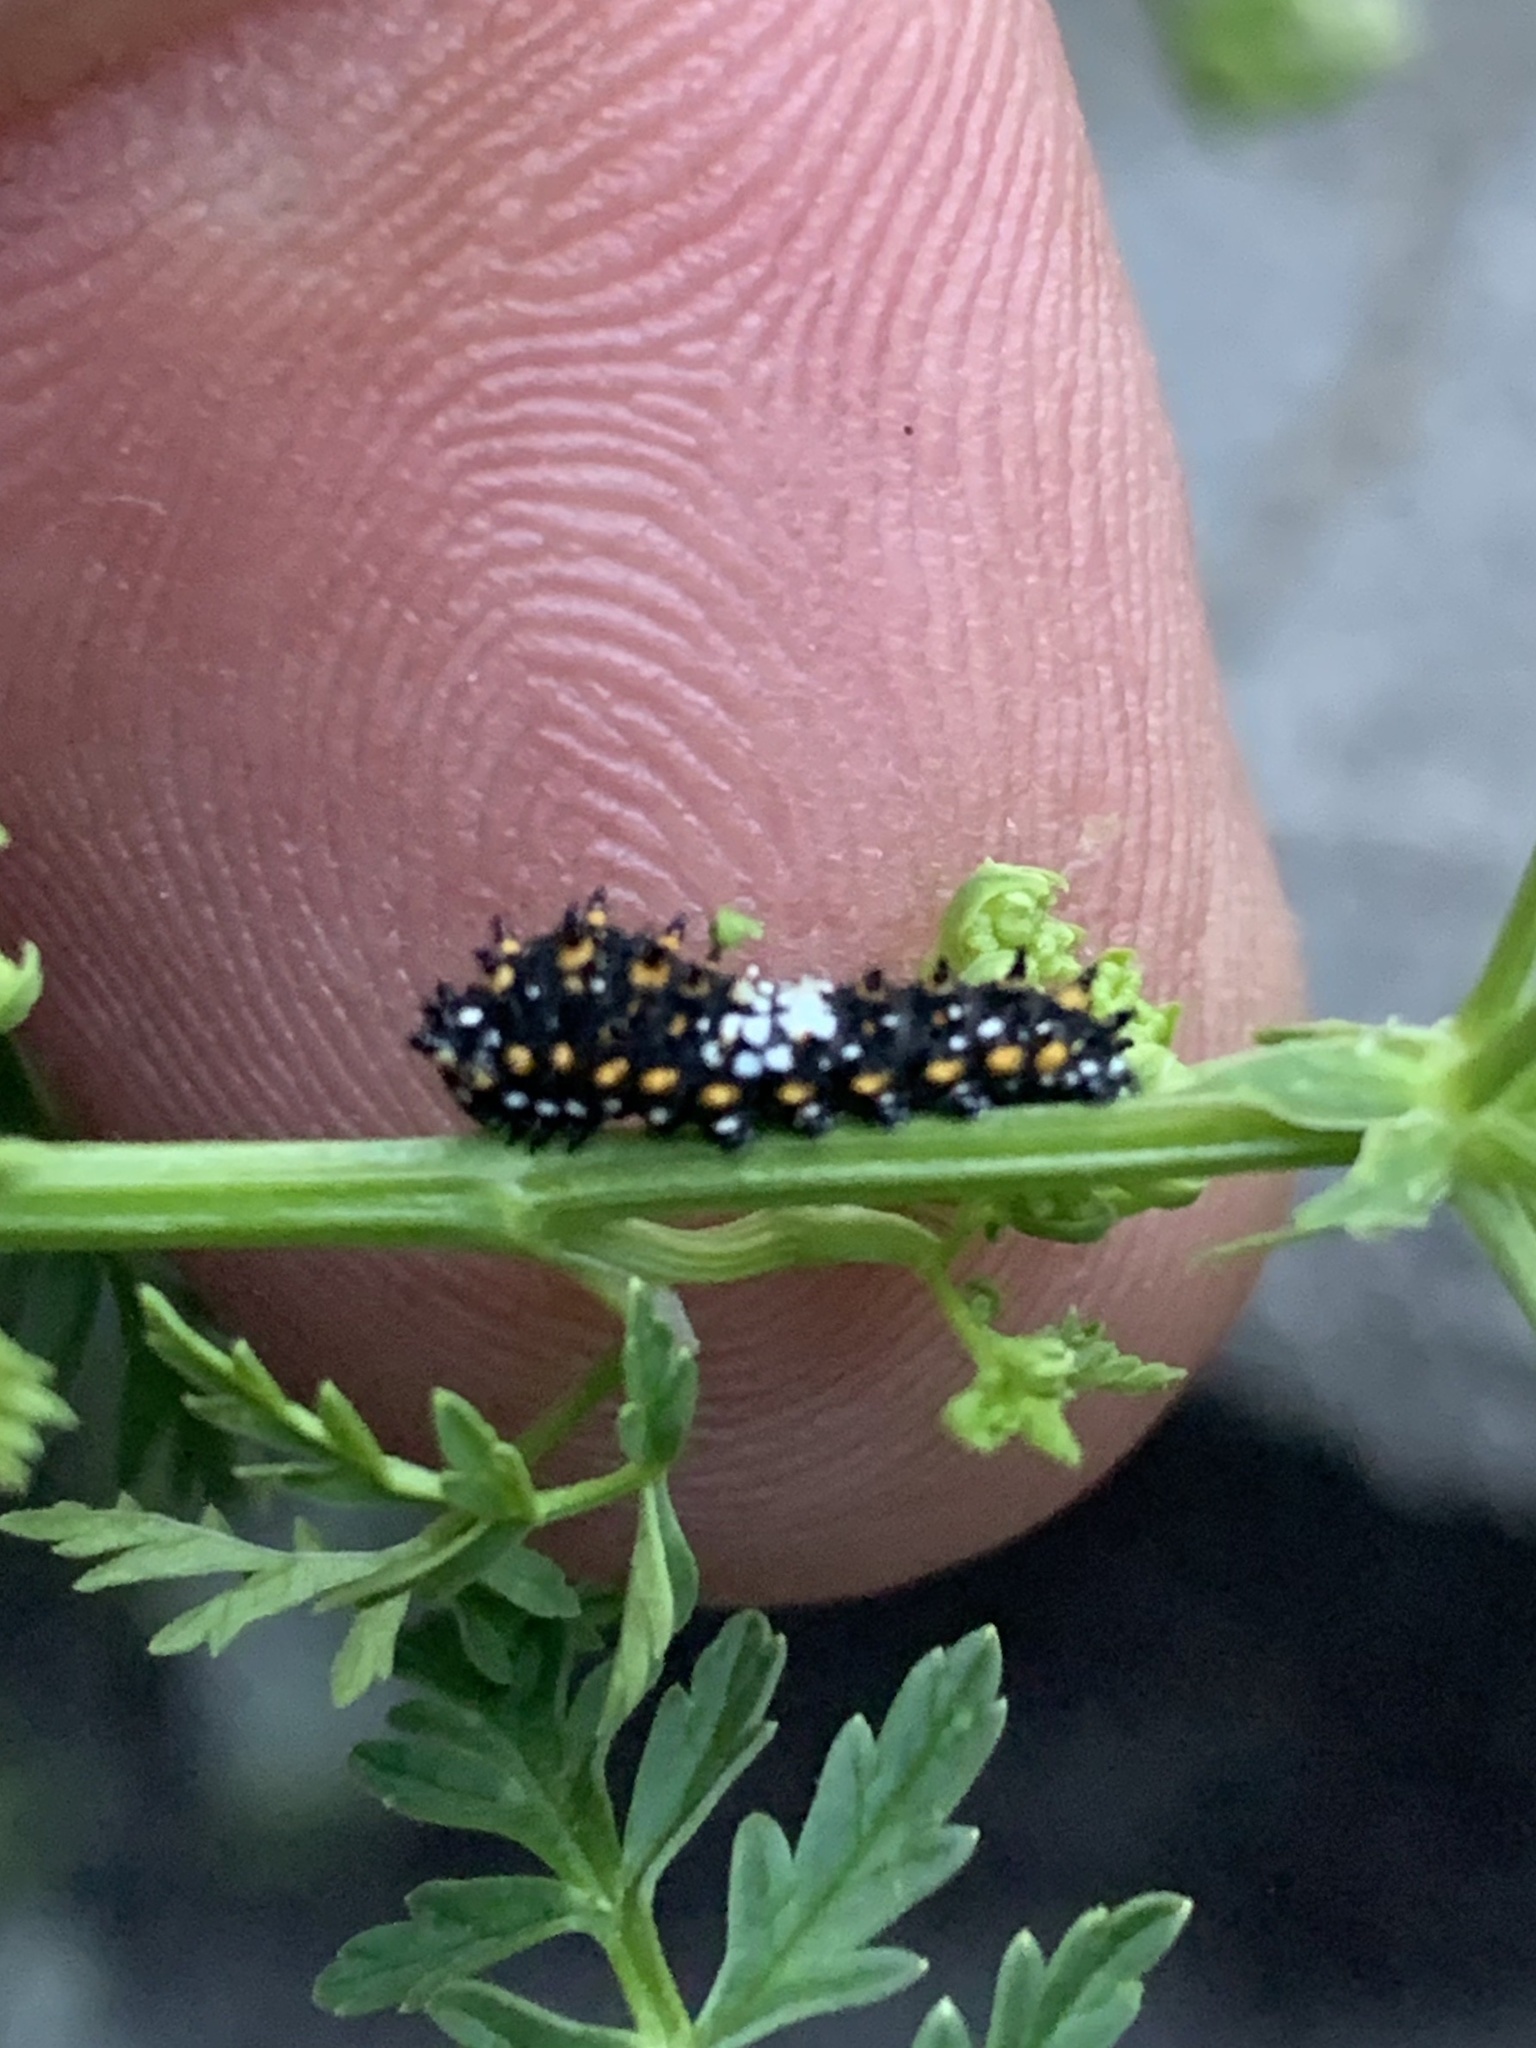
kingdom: Animalia
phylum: Arthropoda
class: Insecta
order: Lepidoptera
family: Papilionidae
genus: Papilio
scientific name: Papilio polyxenes
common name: Black swallowtail
